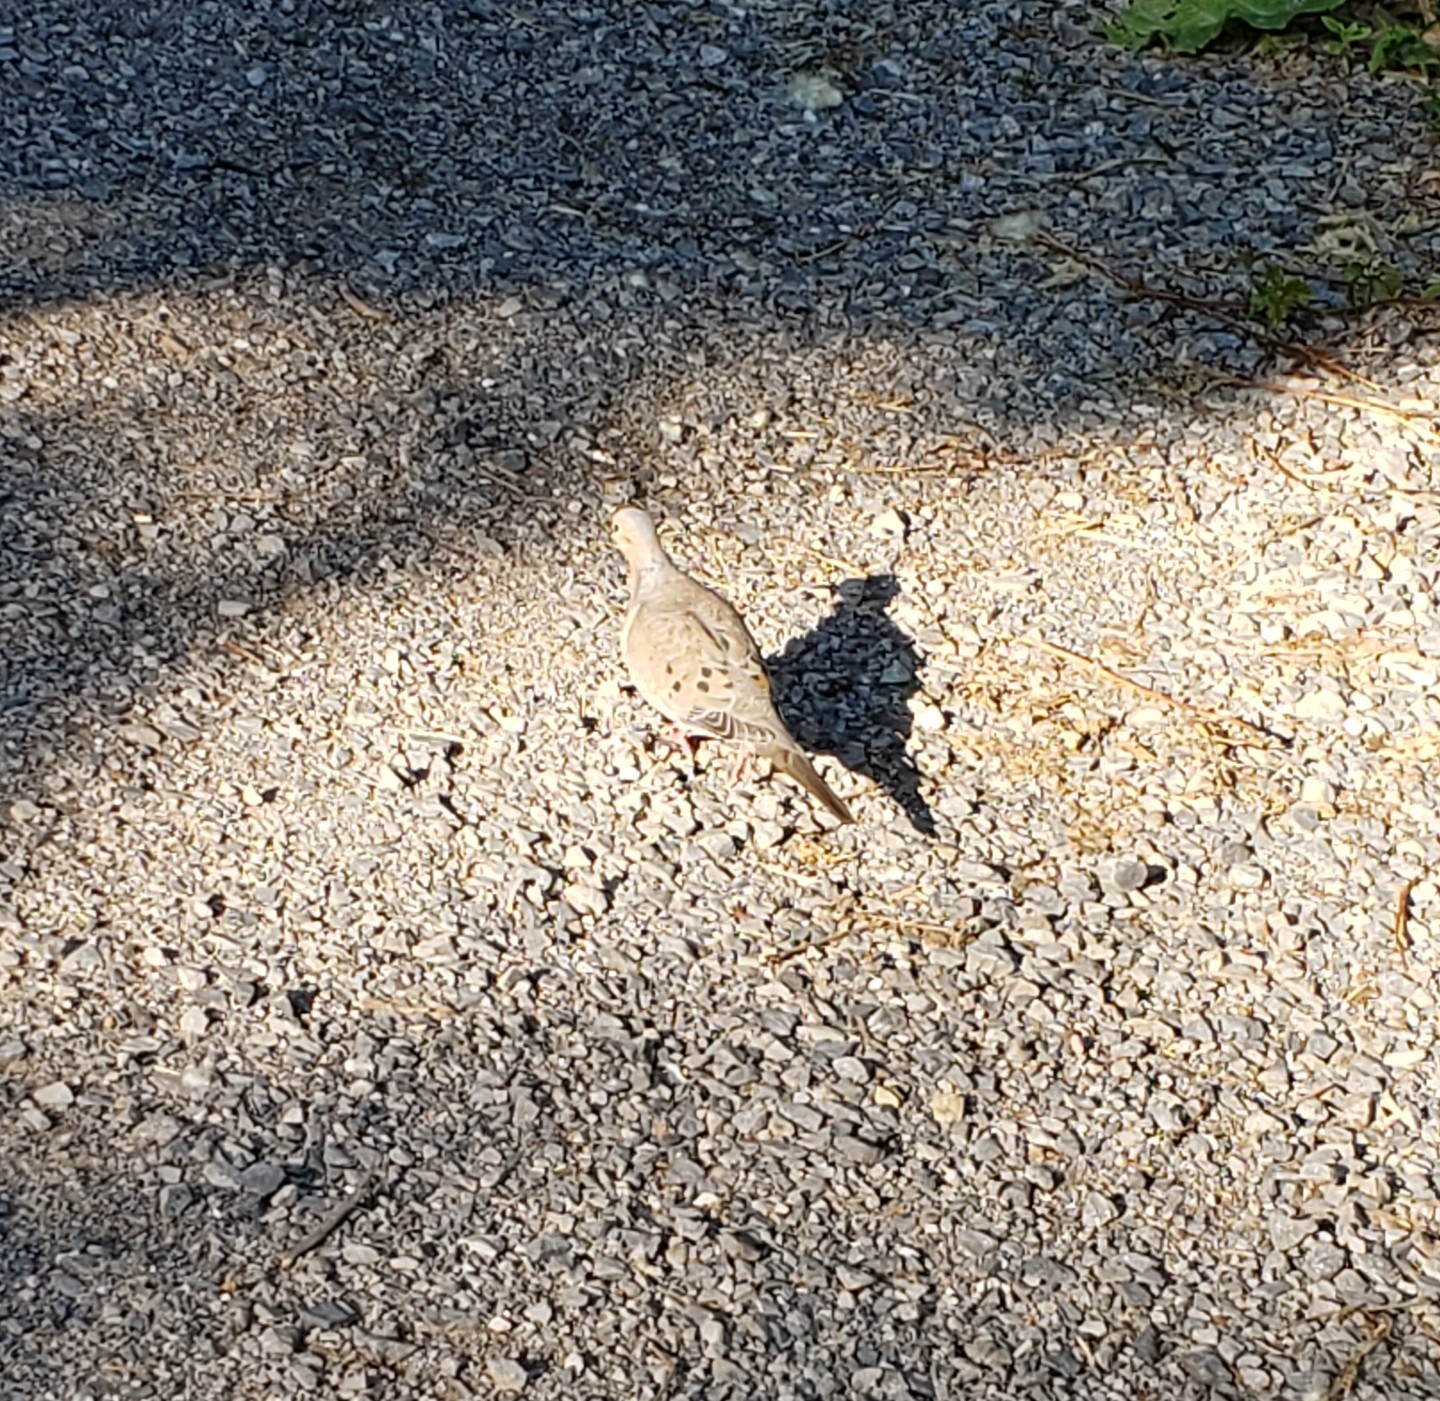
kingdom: Animalia
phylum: Chordata
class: Aves
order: Columbiformes
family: Columbidae
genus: Zenaida
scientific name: Zenaida macroura
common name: Mourning dove
